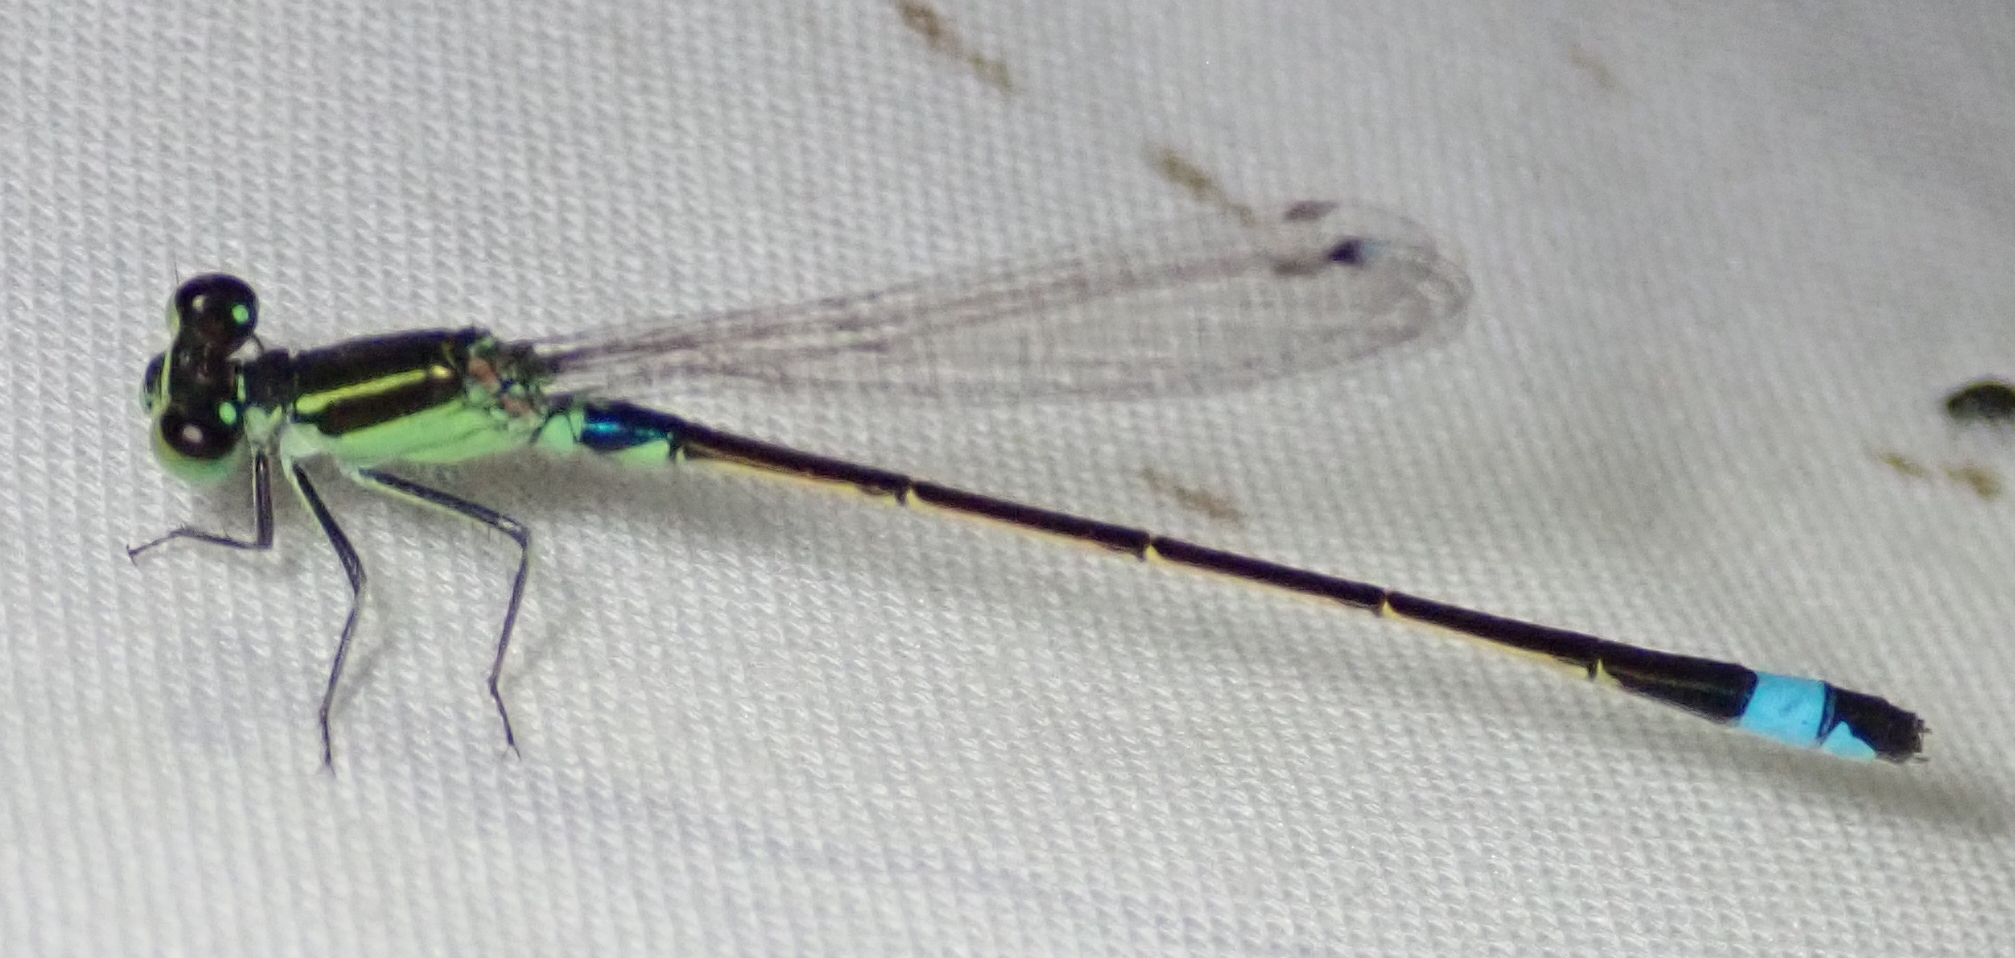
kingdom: Animalia
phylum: Arthropoda
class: Insecta
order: Odonata
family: Coenagrionidae
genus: Ischnura
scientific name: Ischnura senegalensis
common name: Tropical bluetail
